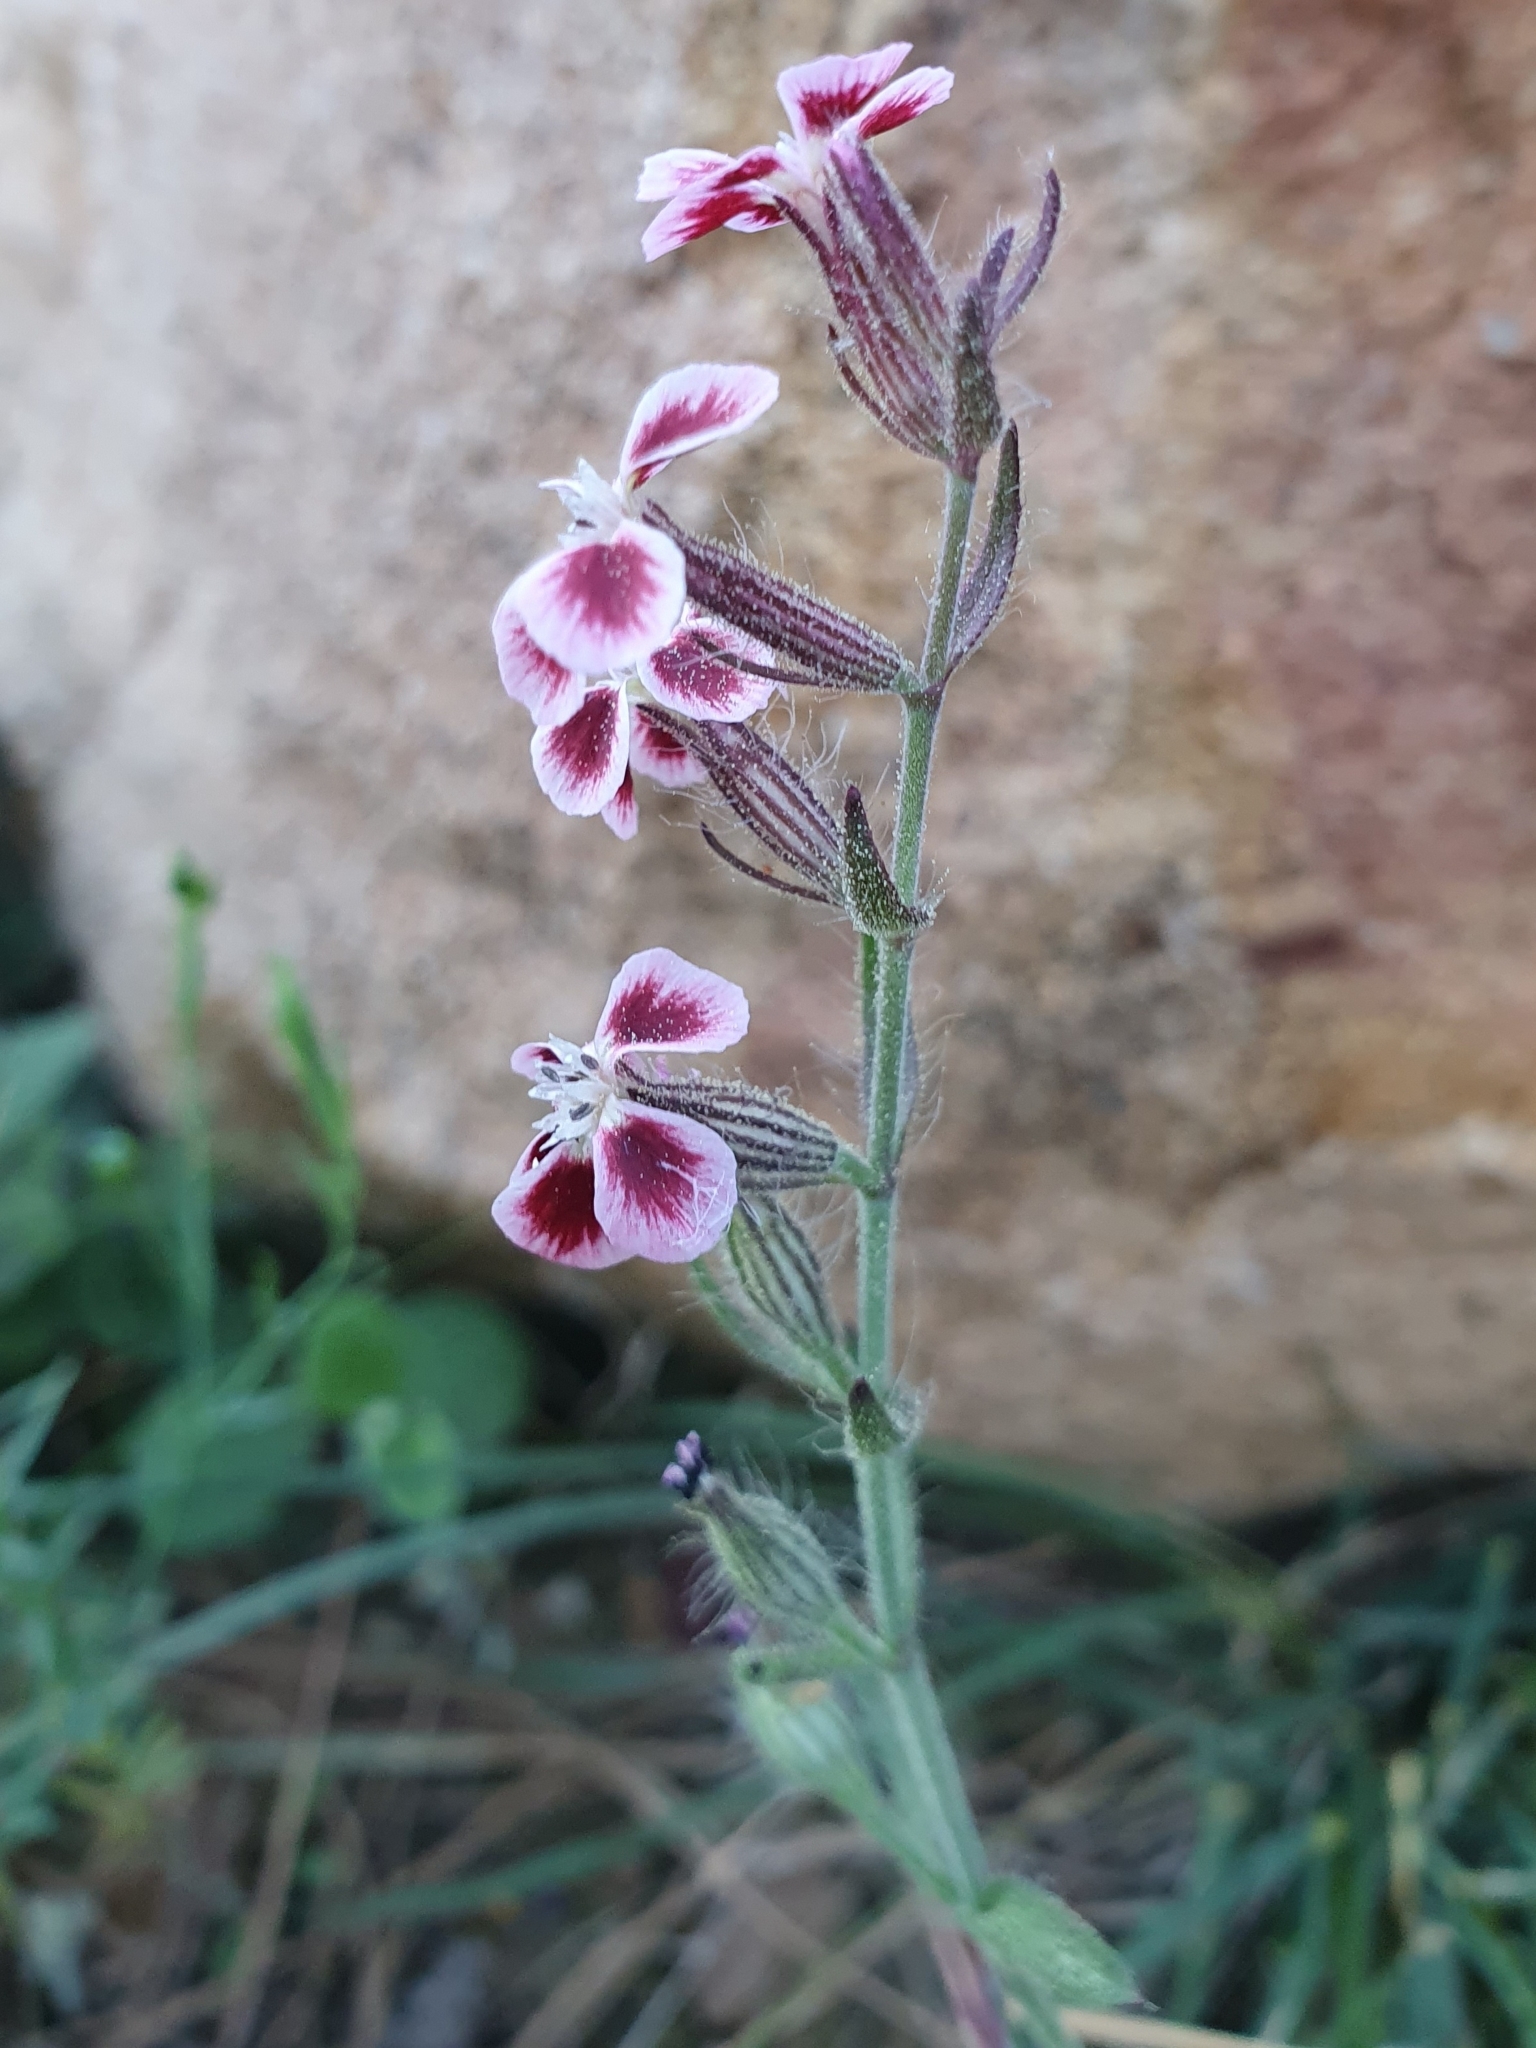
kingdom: Plantae
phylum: Tracheophyta
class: Magnoliopsida
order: Caryophyllales
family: Caryophyllaceae
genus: Silene
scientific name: Silene gallica
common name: Small-flowered catchfly
